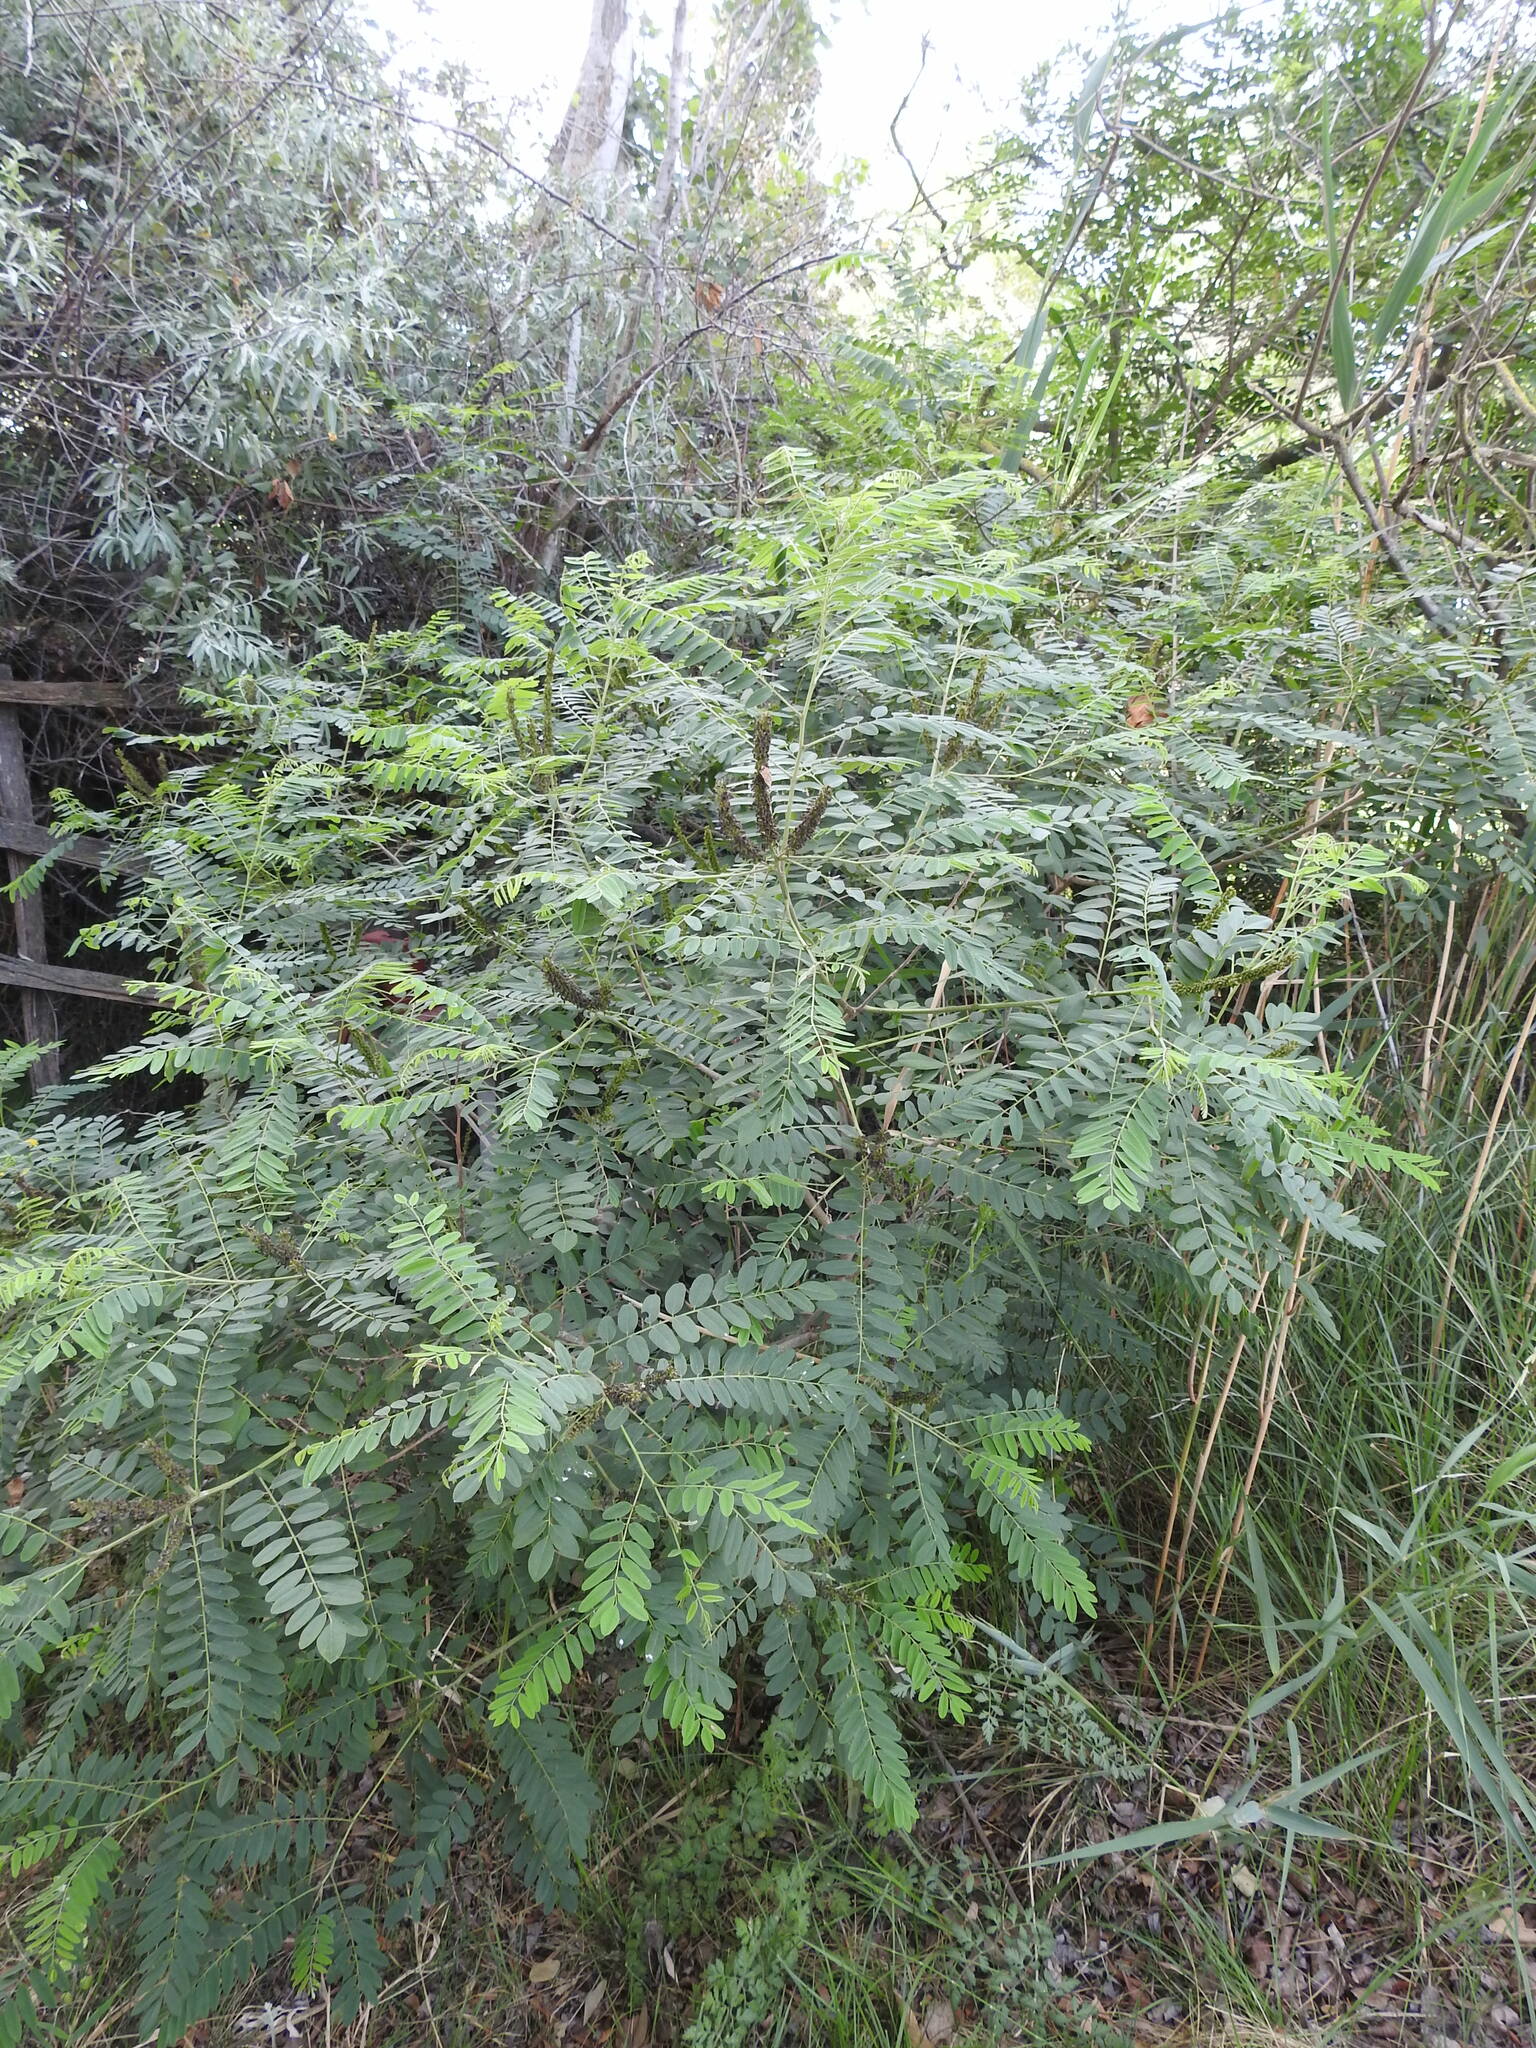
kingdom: Plantae
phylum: Tracheophyta
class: Magnoliopsida
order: Fabales
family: Fabaceae
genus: Amorpha
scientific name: Amorpha fruticosa
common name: False indigo
